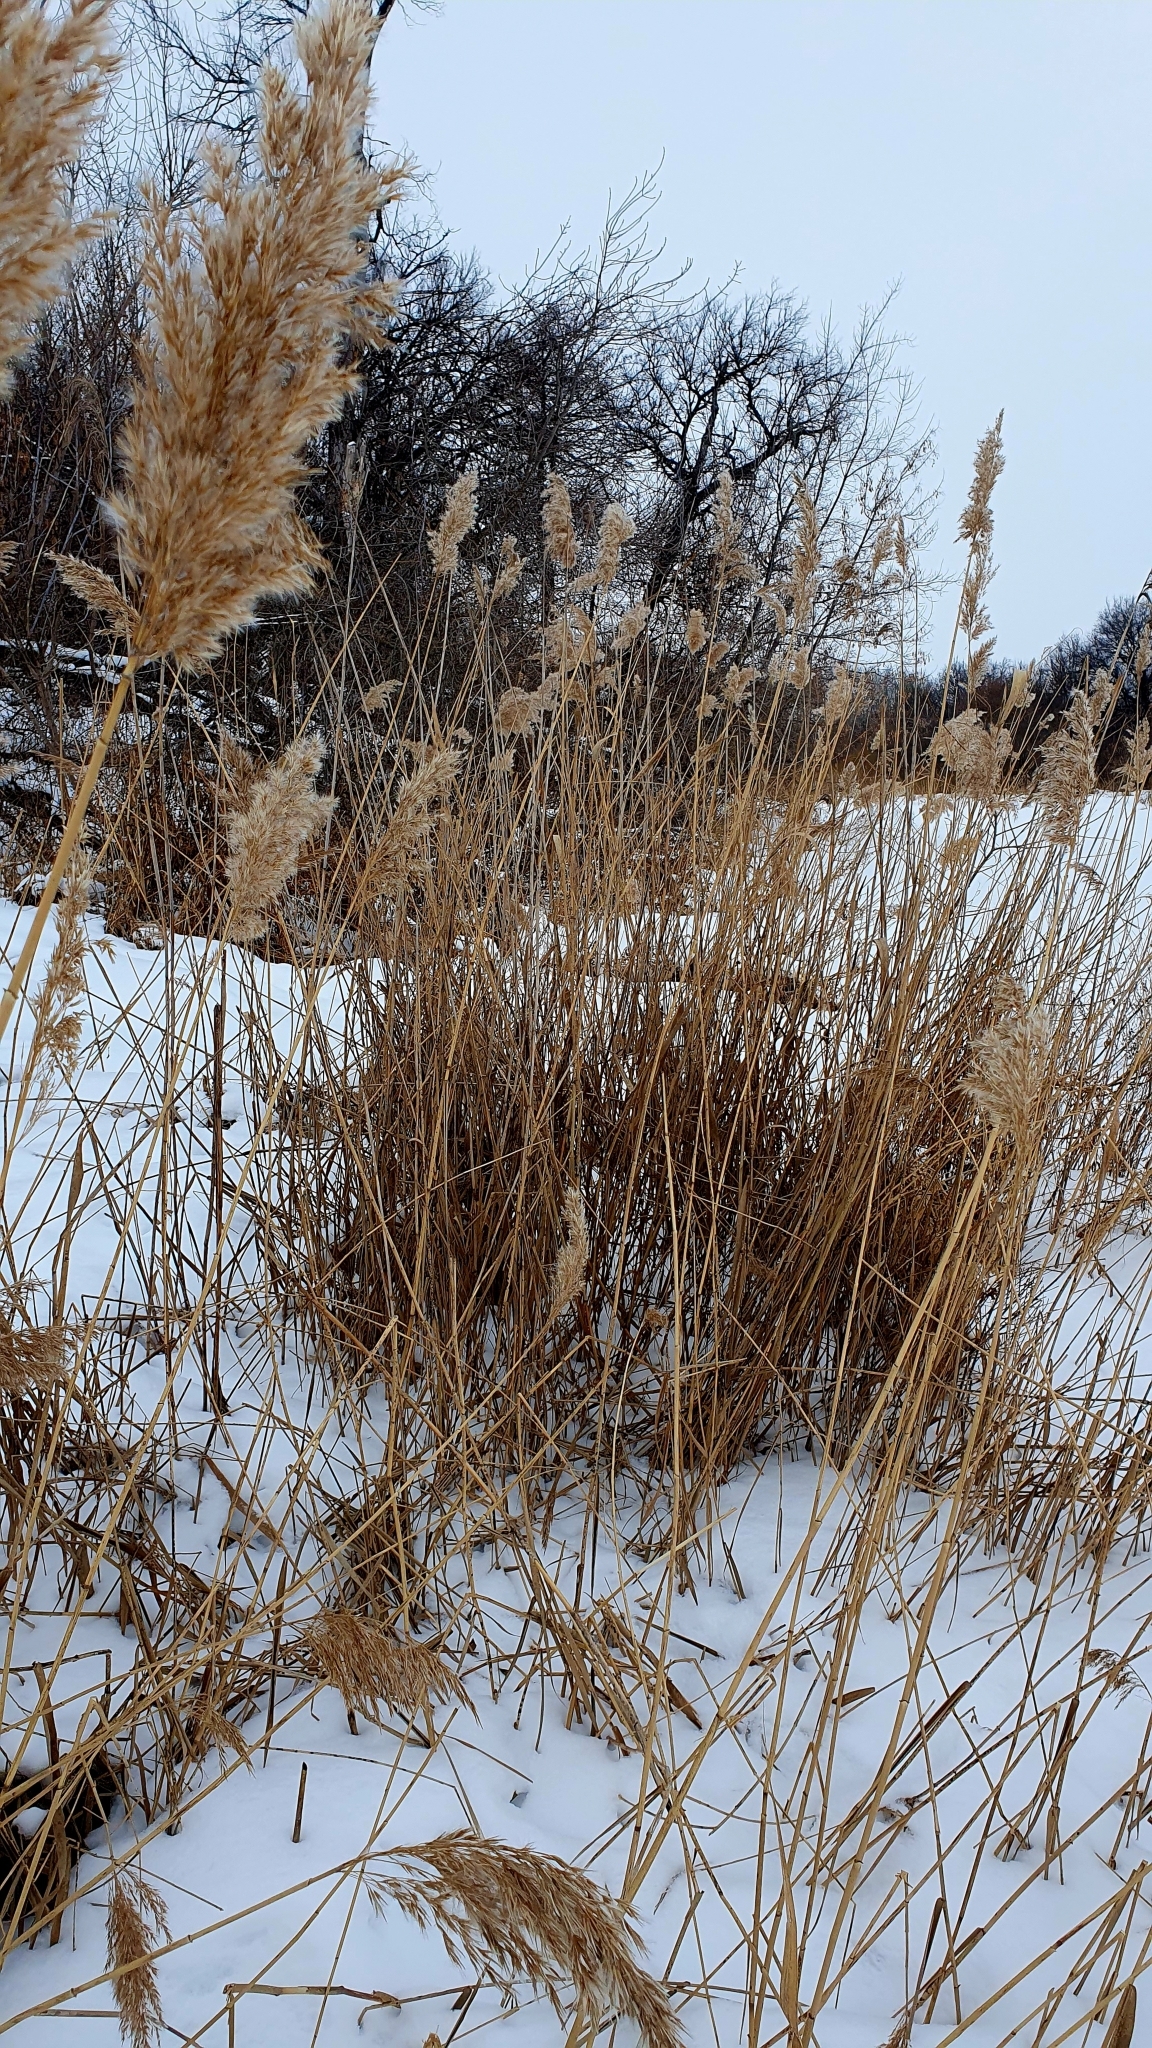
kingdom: Plantae
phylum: Tracheophyta
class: Liliopsida
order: Poales
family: Poaceae
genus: Phragmites
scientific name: Phragmites australis
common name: Common reed
